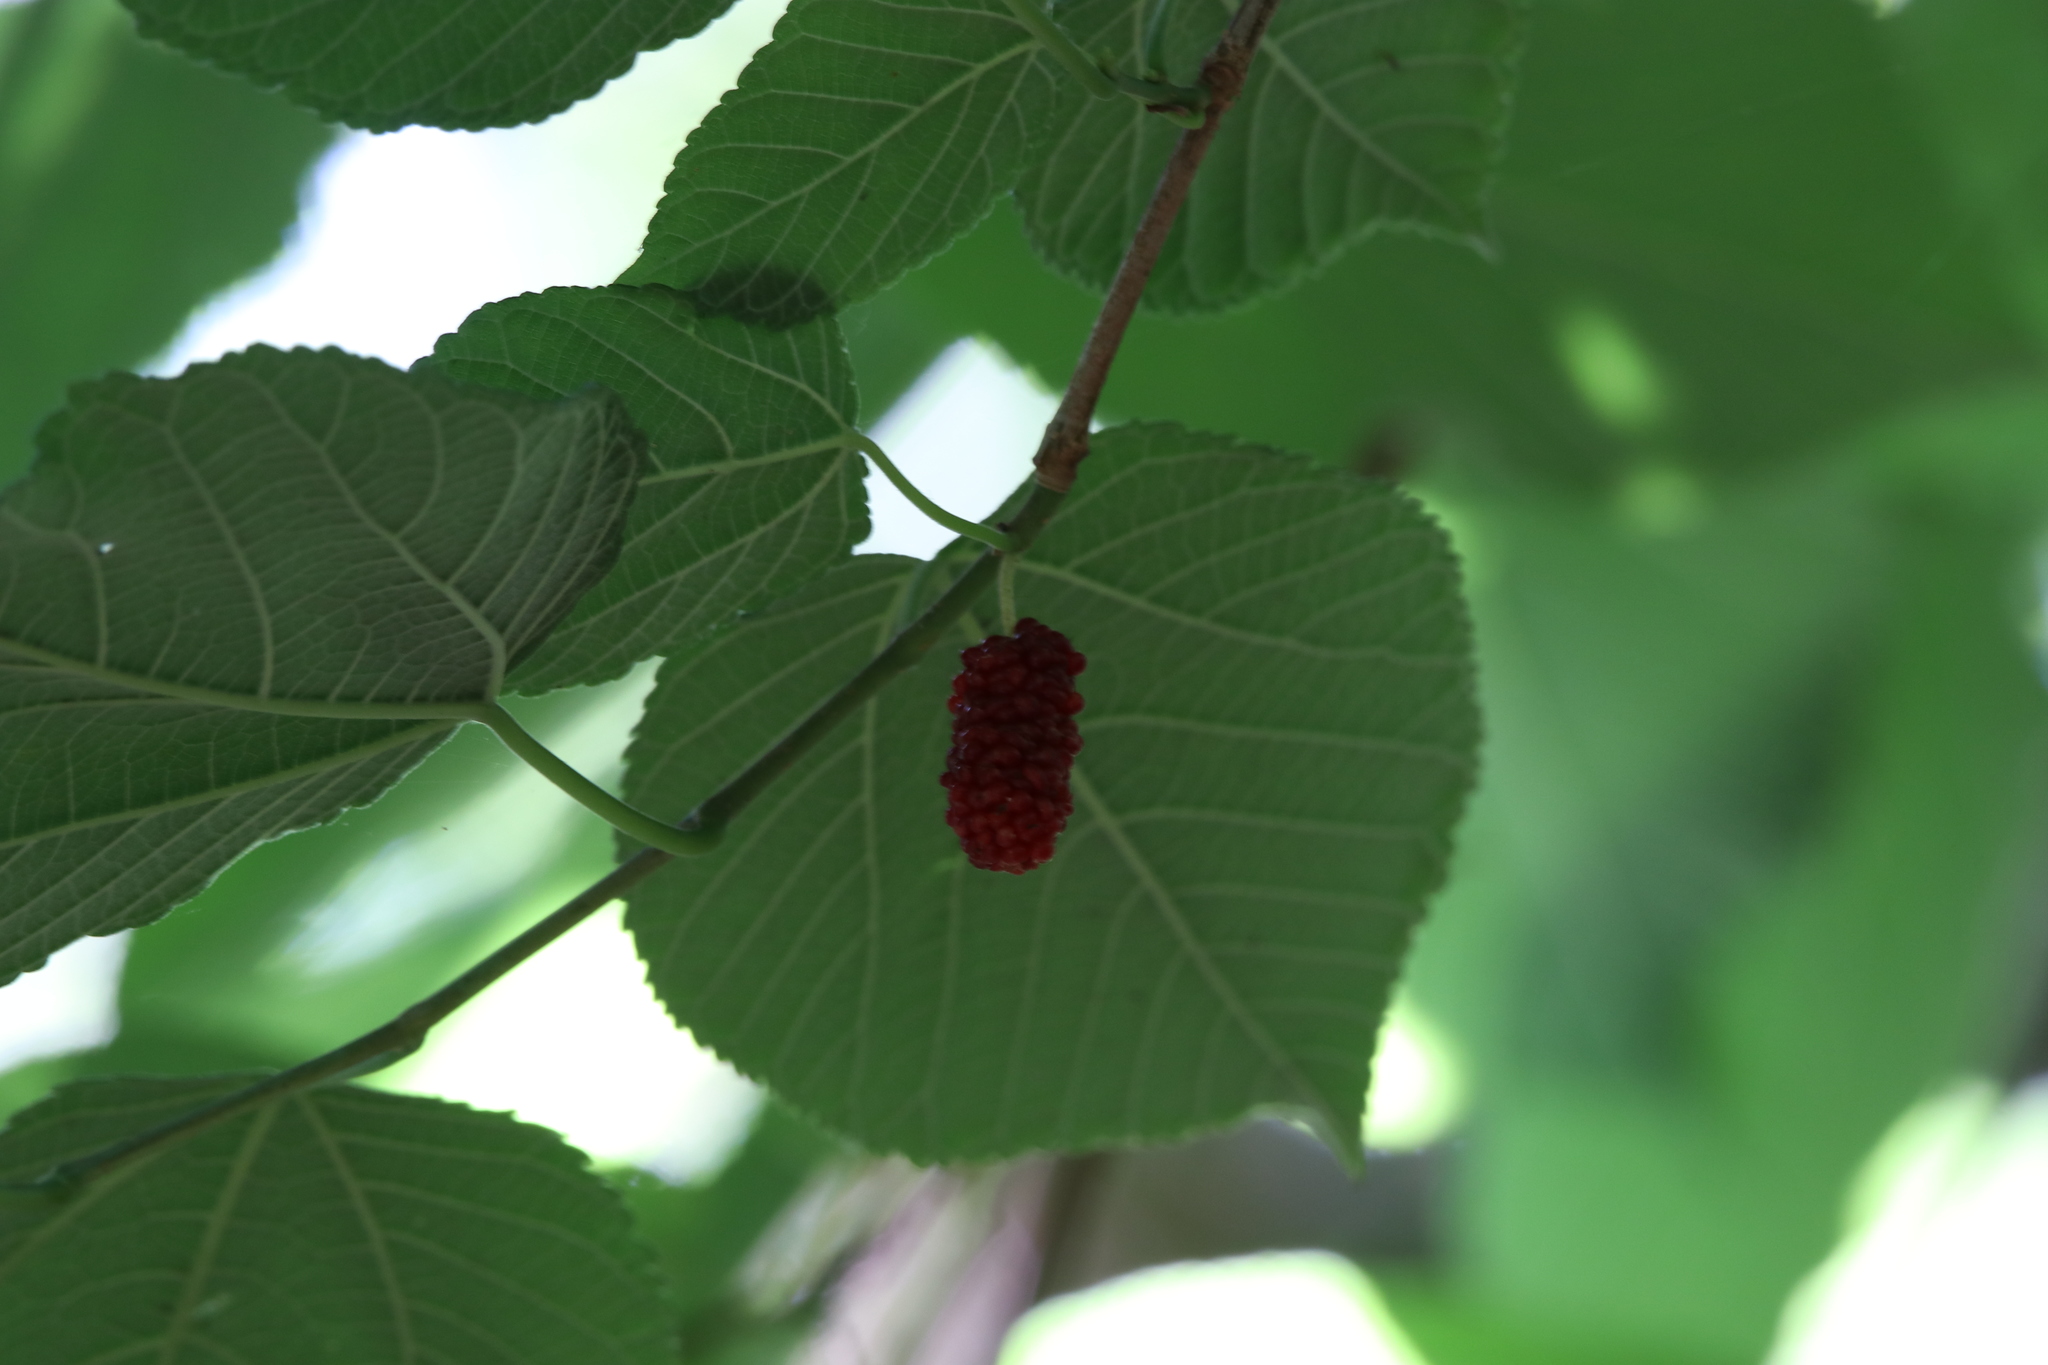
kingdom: Plantae
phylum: Tracheophyta
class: Magnoliopsida
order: Rosales
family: Moraceae
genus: Morus
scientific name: Morus rubra
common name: Red mulberry
